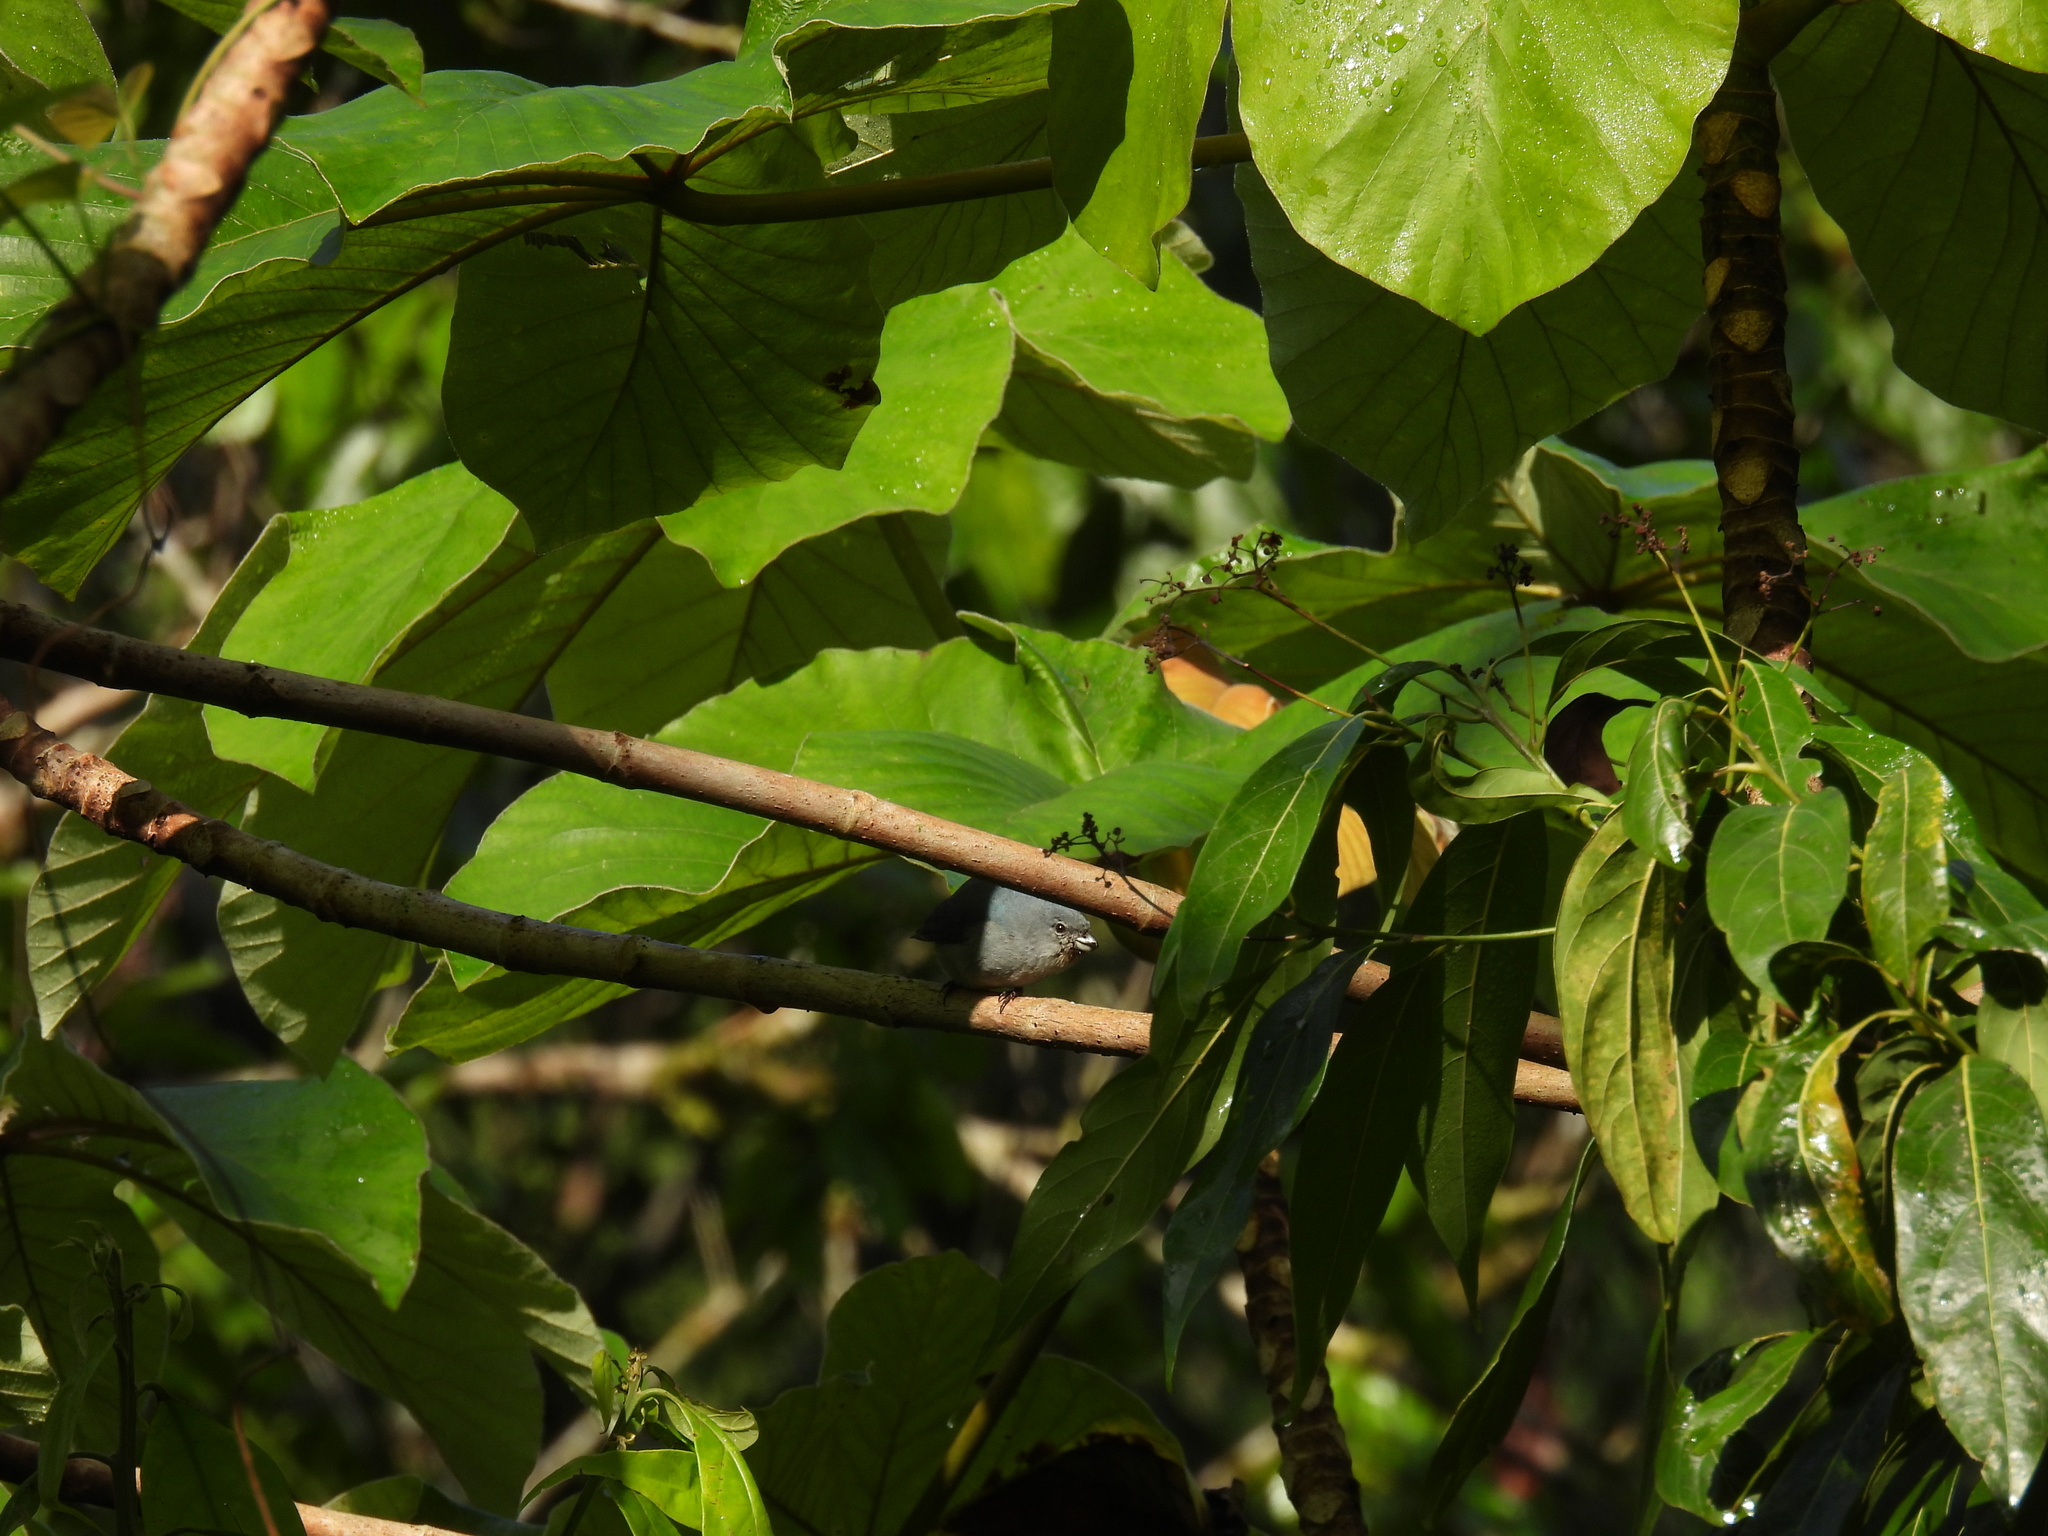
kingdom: Animalia
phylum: Chordata
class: Aves
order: Passeriformes
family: Fringillidae
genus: Euphonia
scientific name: Euphonia jamaica
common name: Jamaican euphonia
